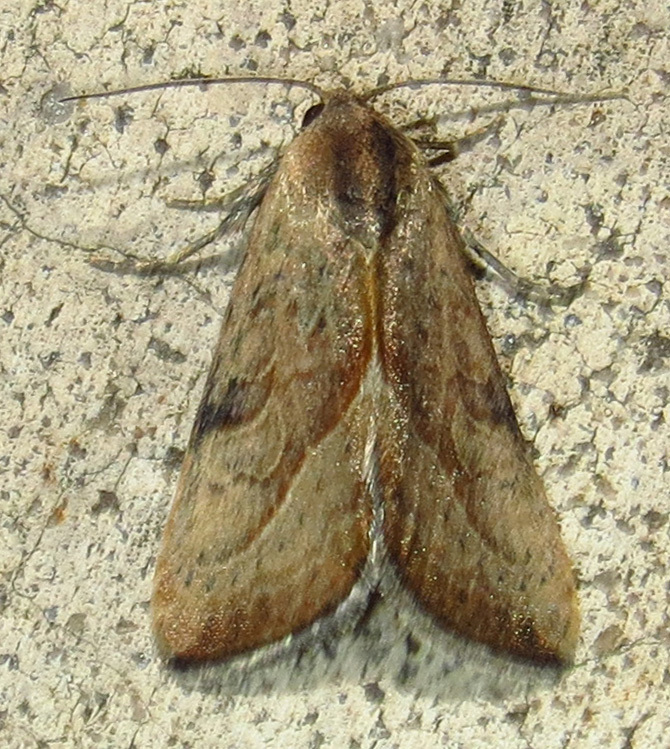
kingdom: Animalia
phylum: Arthropoda
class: Insecta
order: Lepidoptera
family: Noctuidae
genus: Galgula
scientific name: Galgula partita
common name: Wedgeling
